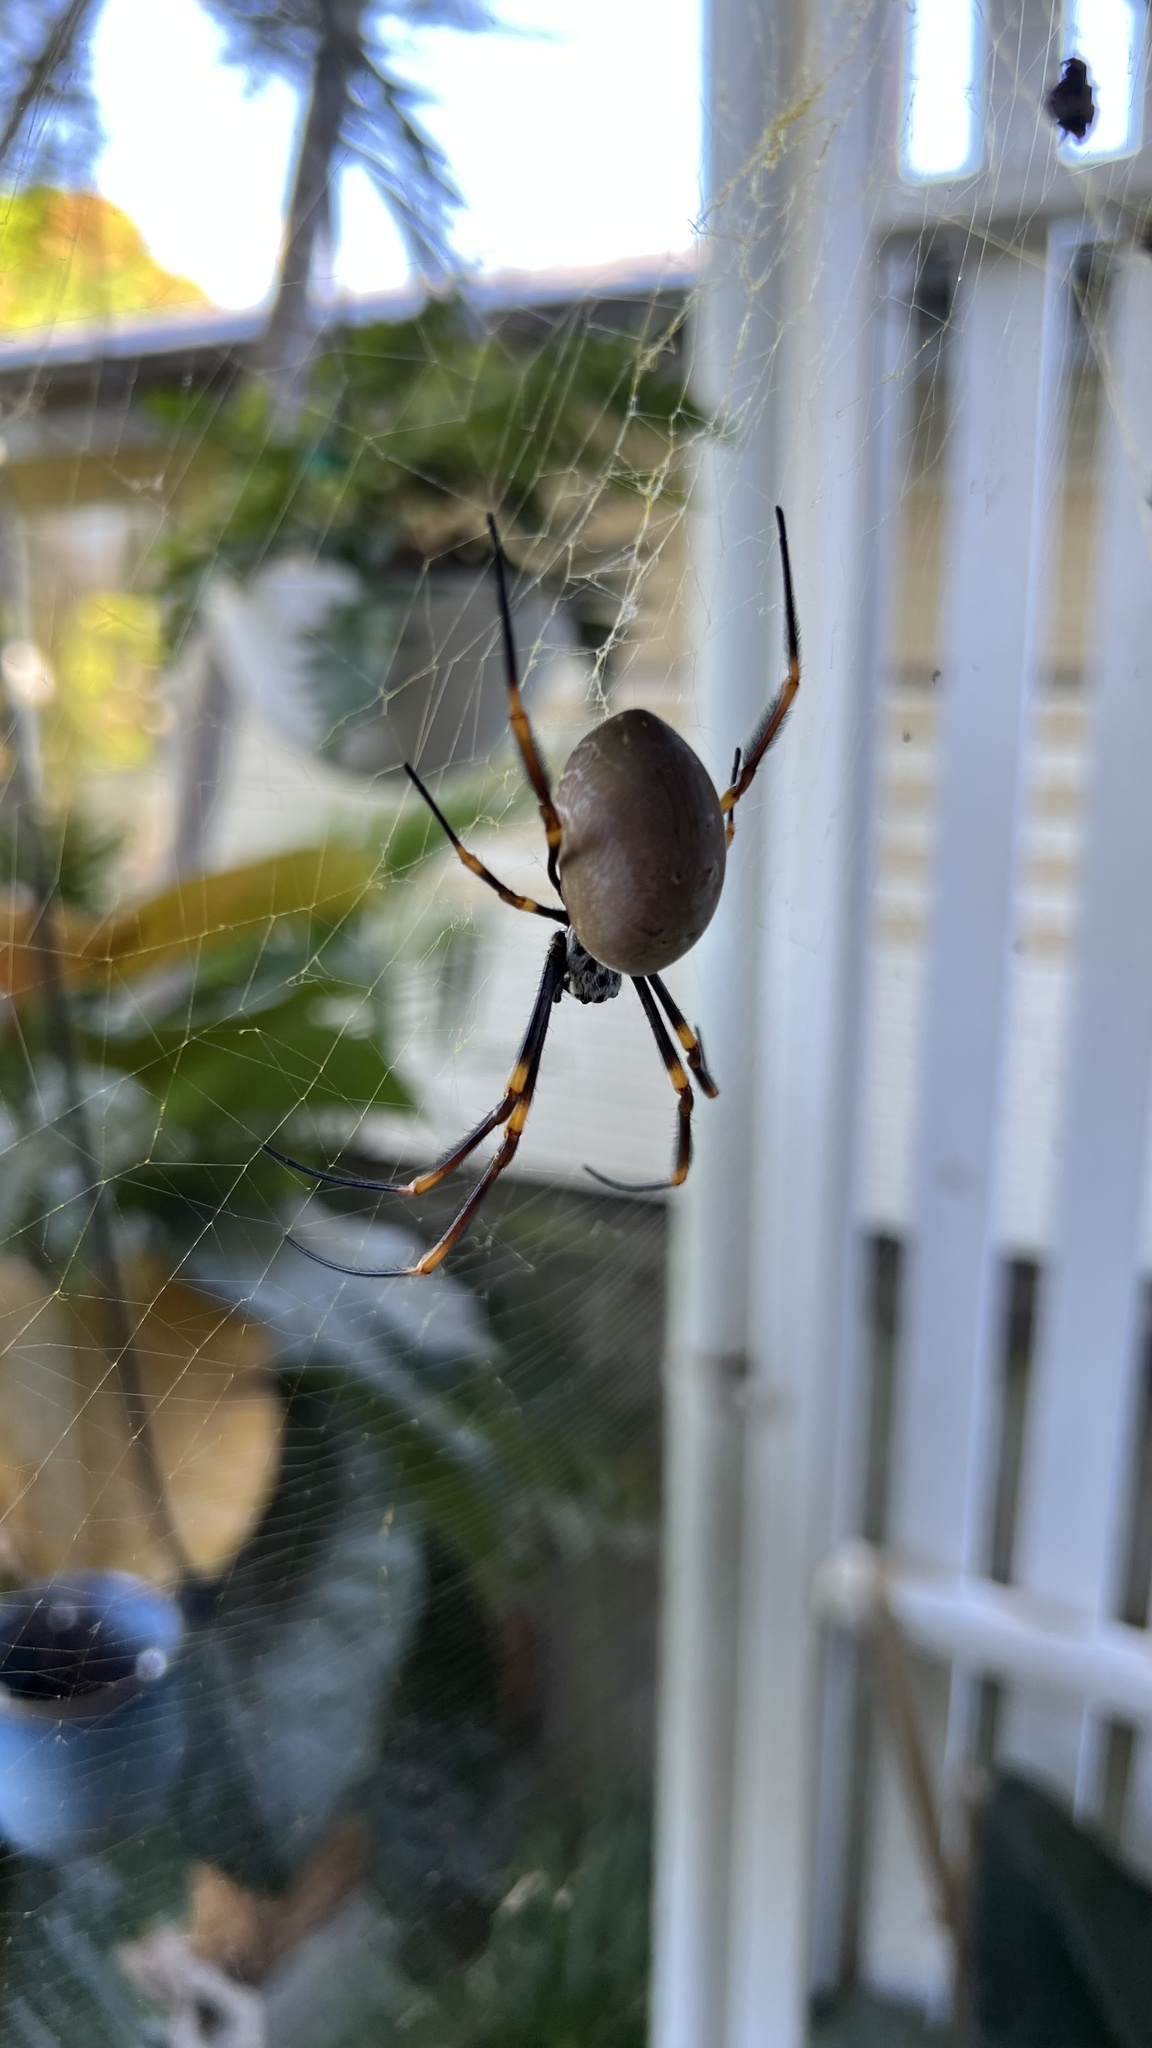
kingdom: Animalia
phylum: Arthropoda
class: Arachnida
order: Araneae
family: Araneidae
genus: Trichonephila
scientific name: Trichonephila plumipes
